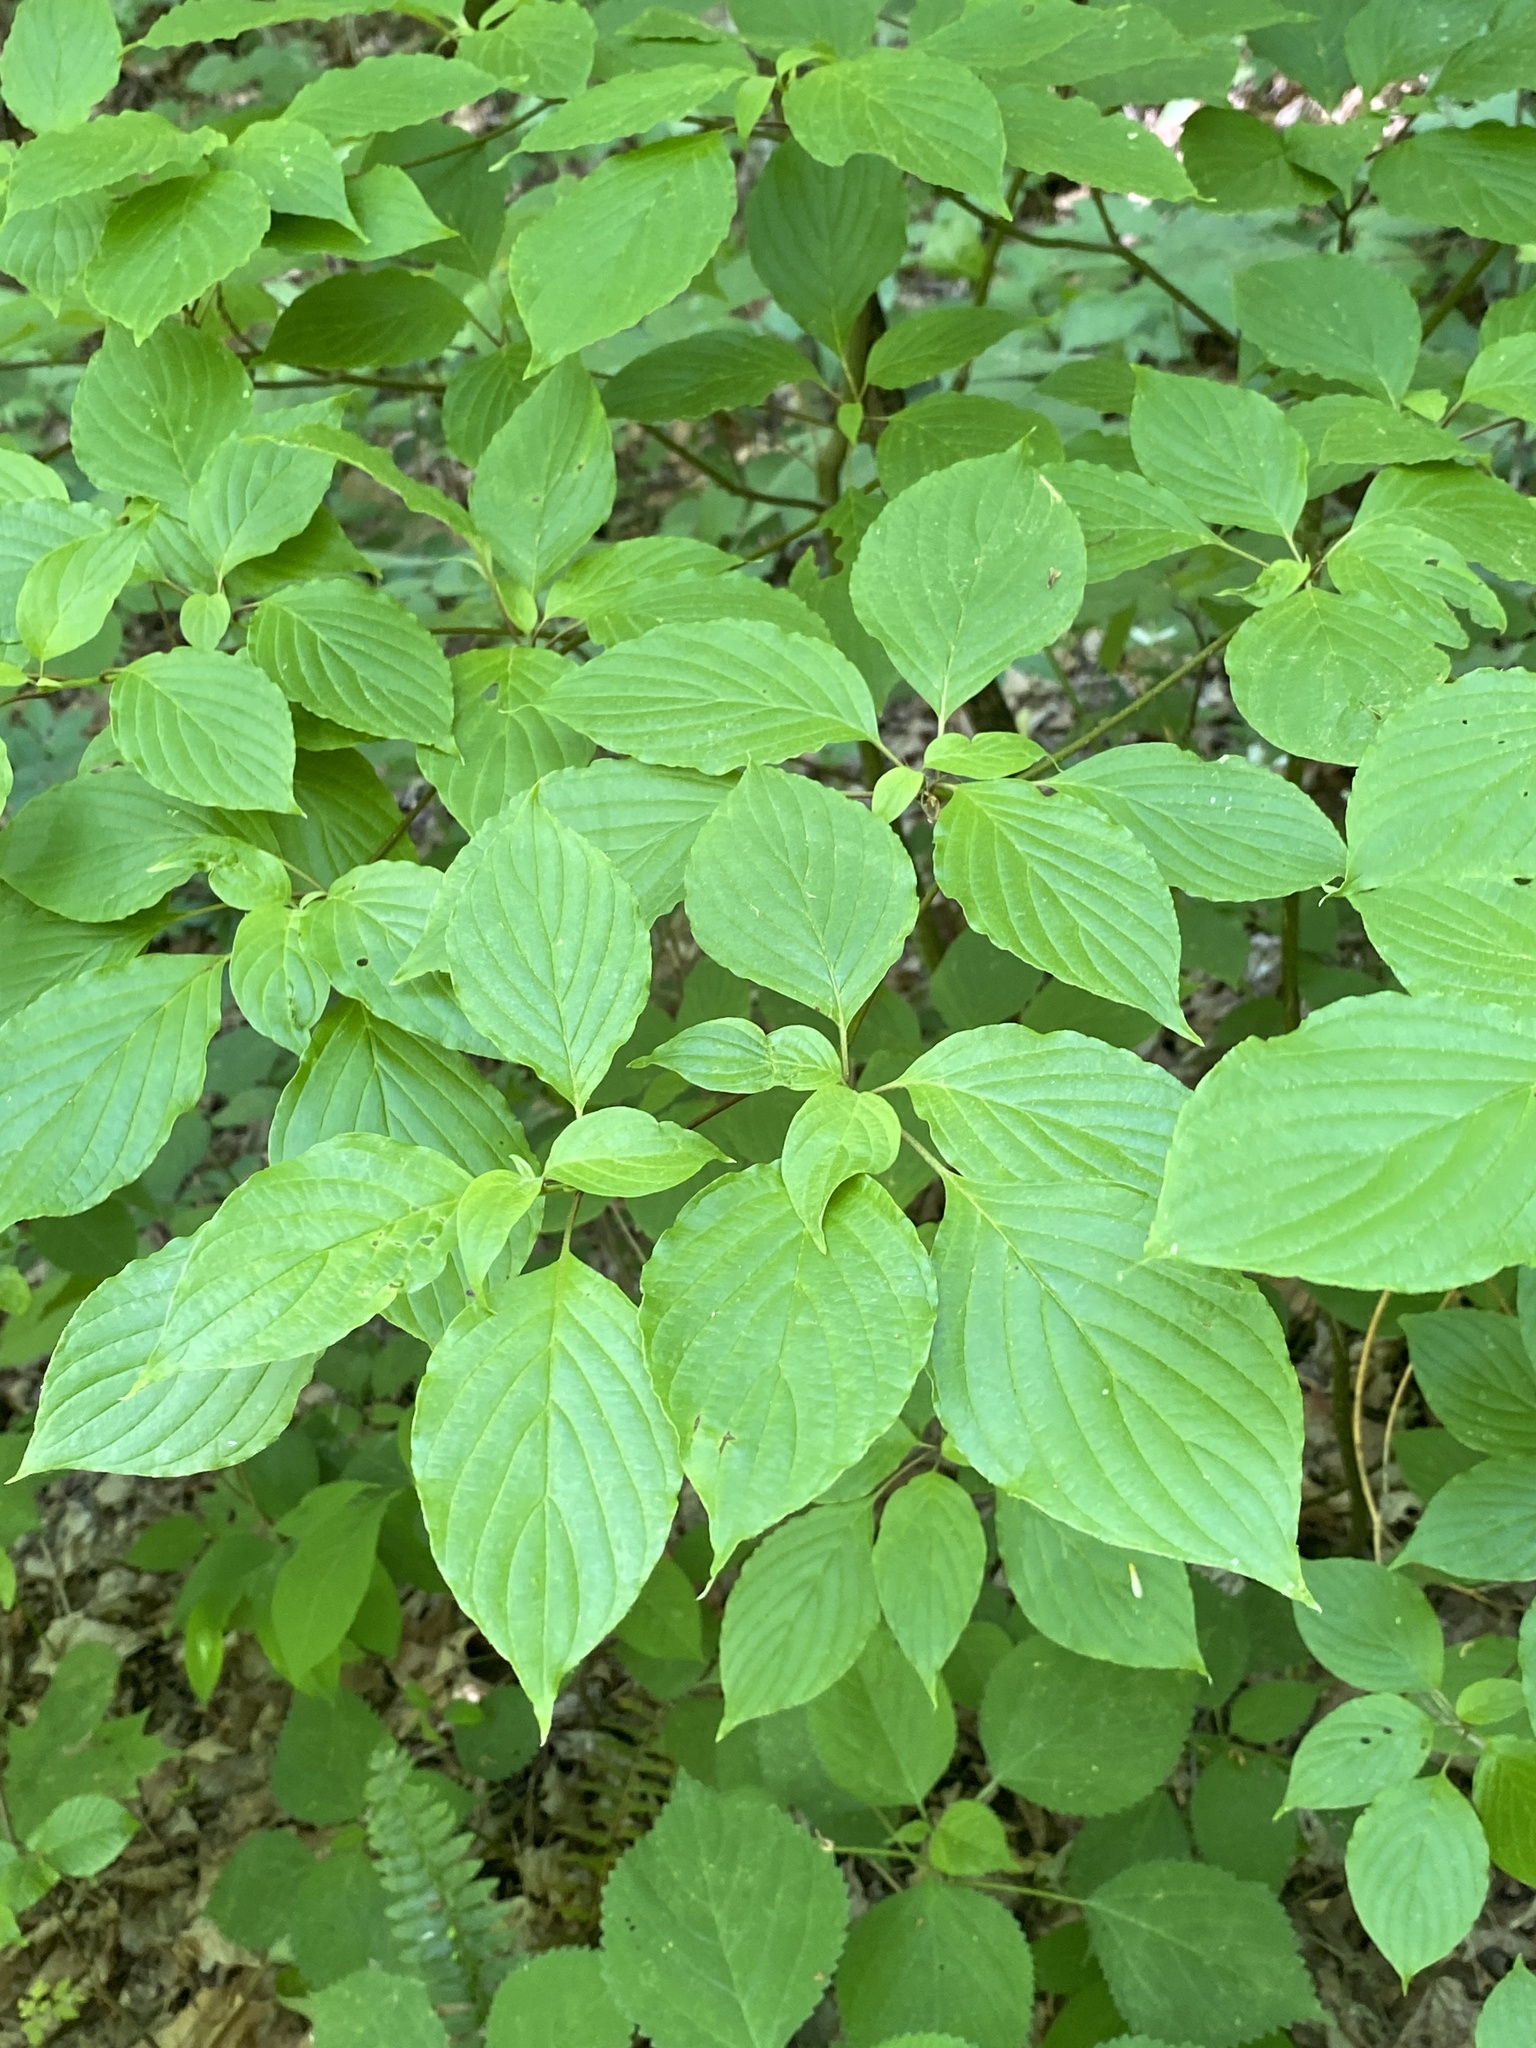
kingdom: Plantae
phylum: Tracheophyta
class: Magnoliopsida
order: Cornales
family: Cornaceae
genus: Cornus
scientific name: Cornus alternifolia
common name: Pagoda dogwood
